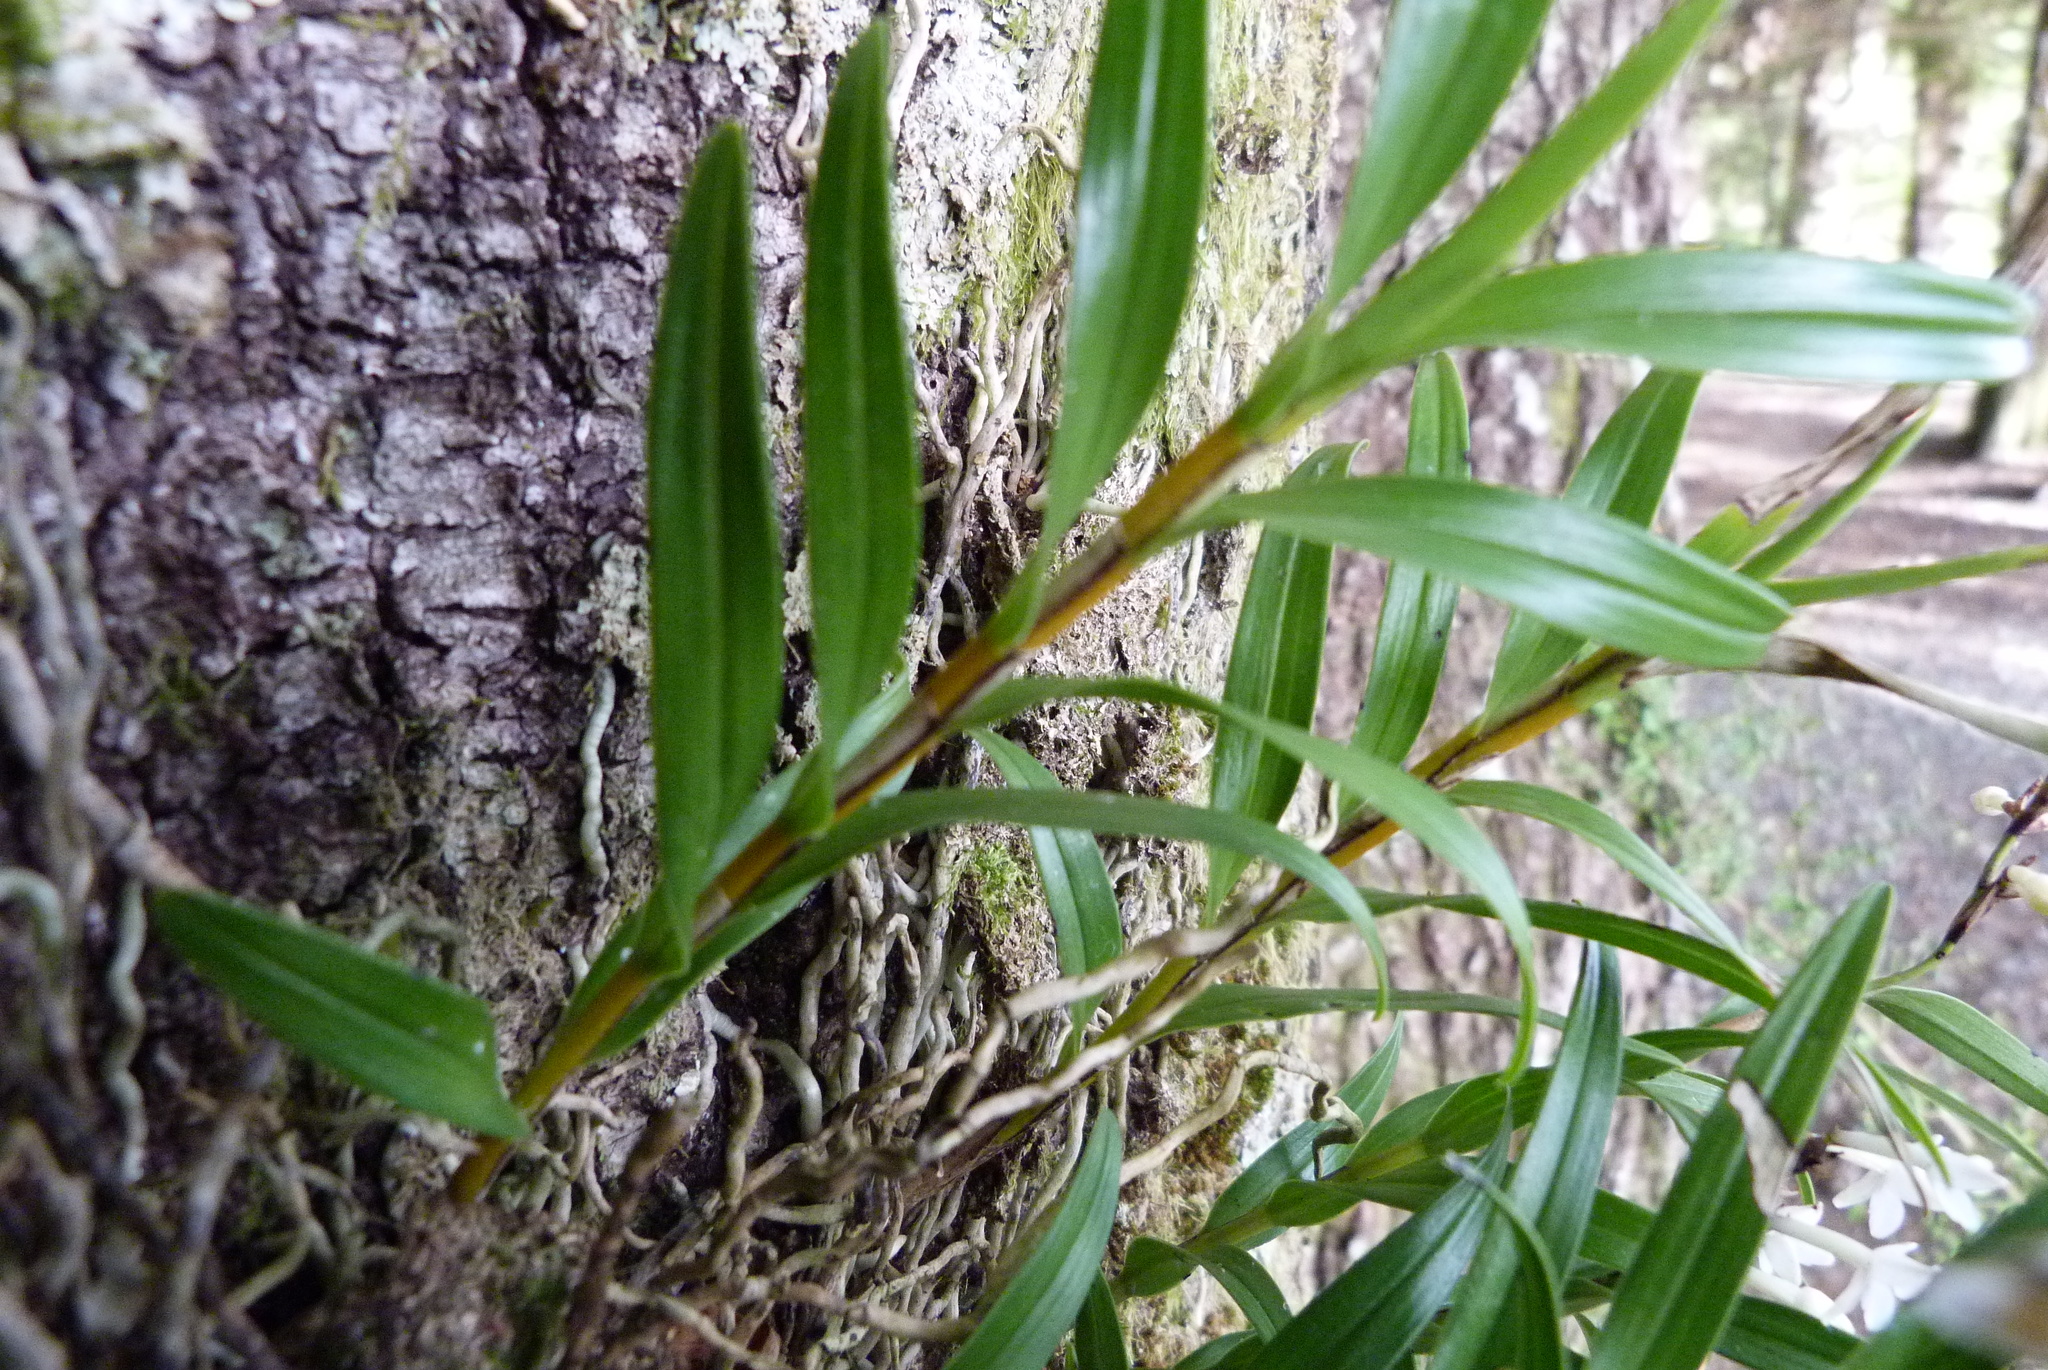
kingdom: Plantae
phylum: Tracheophyta
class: Liliopsida
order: Asparagales
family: Orchidaceae
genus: Earina
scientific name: Earina autumnalis
